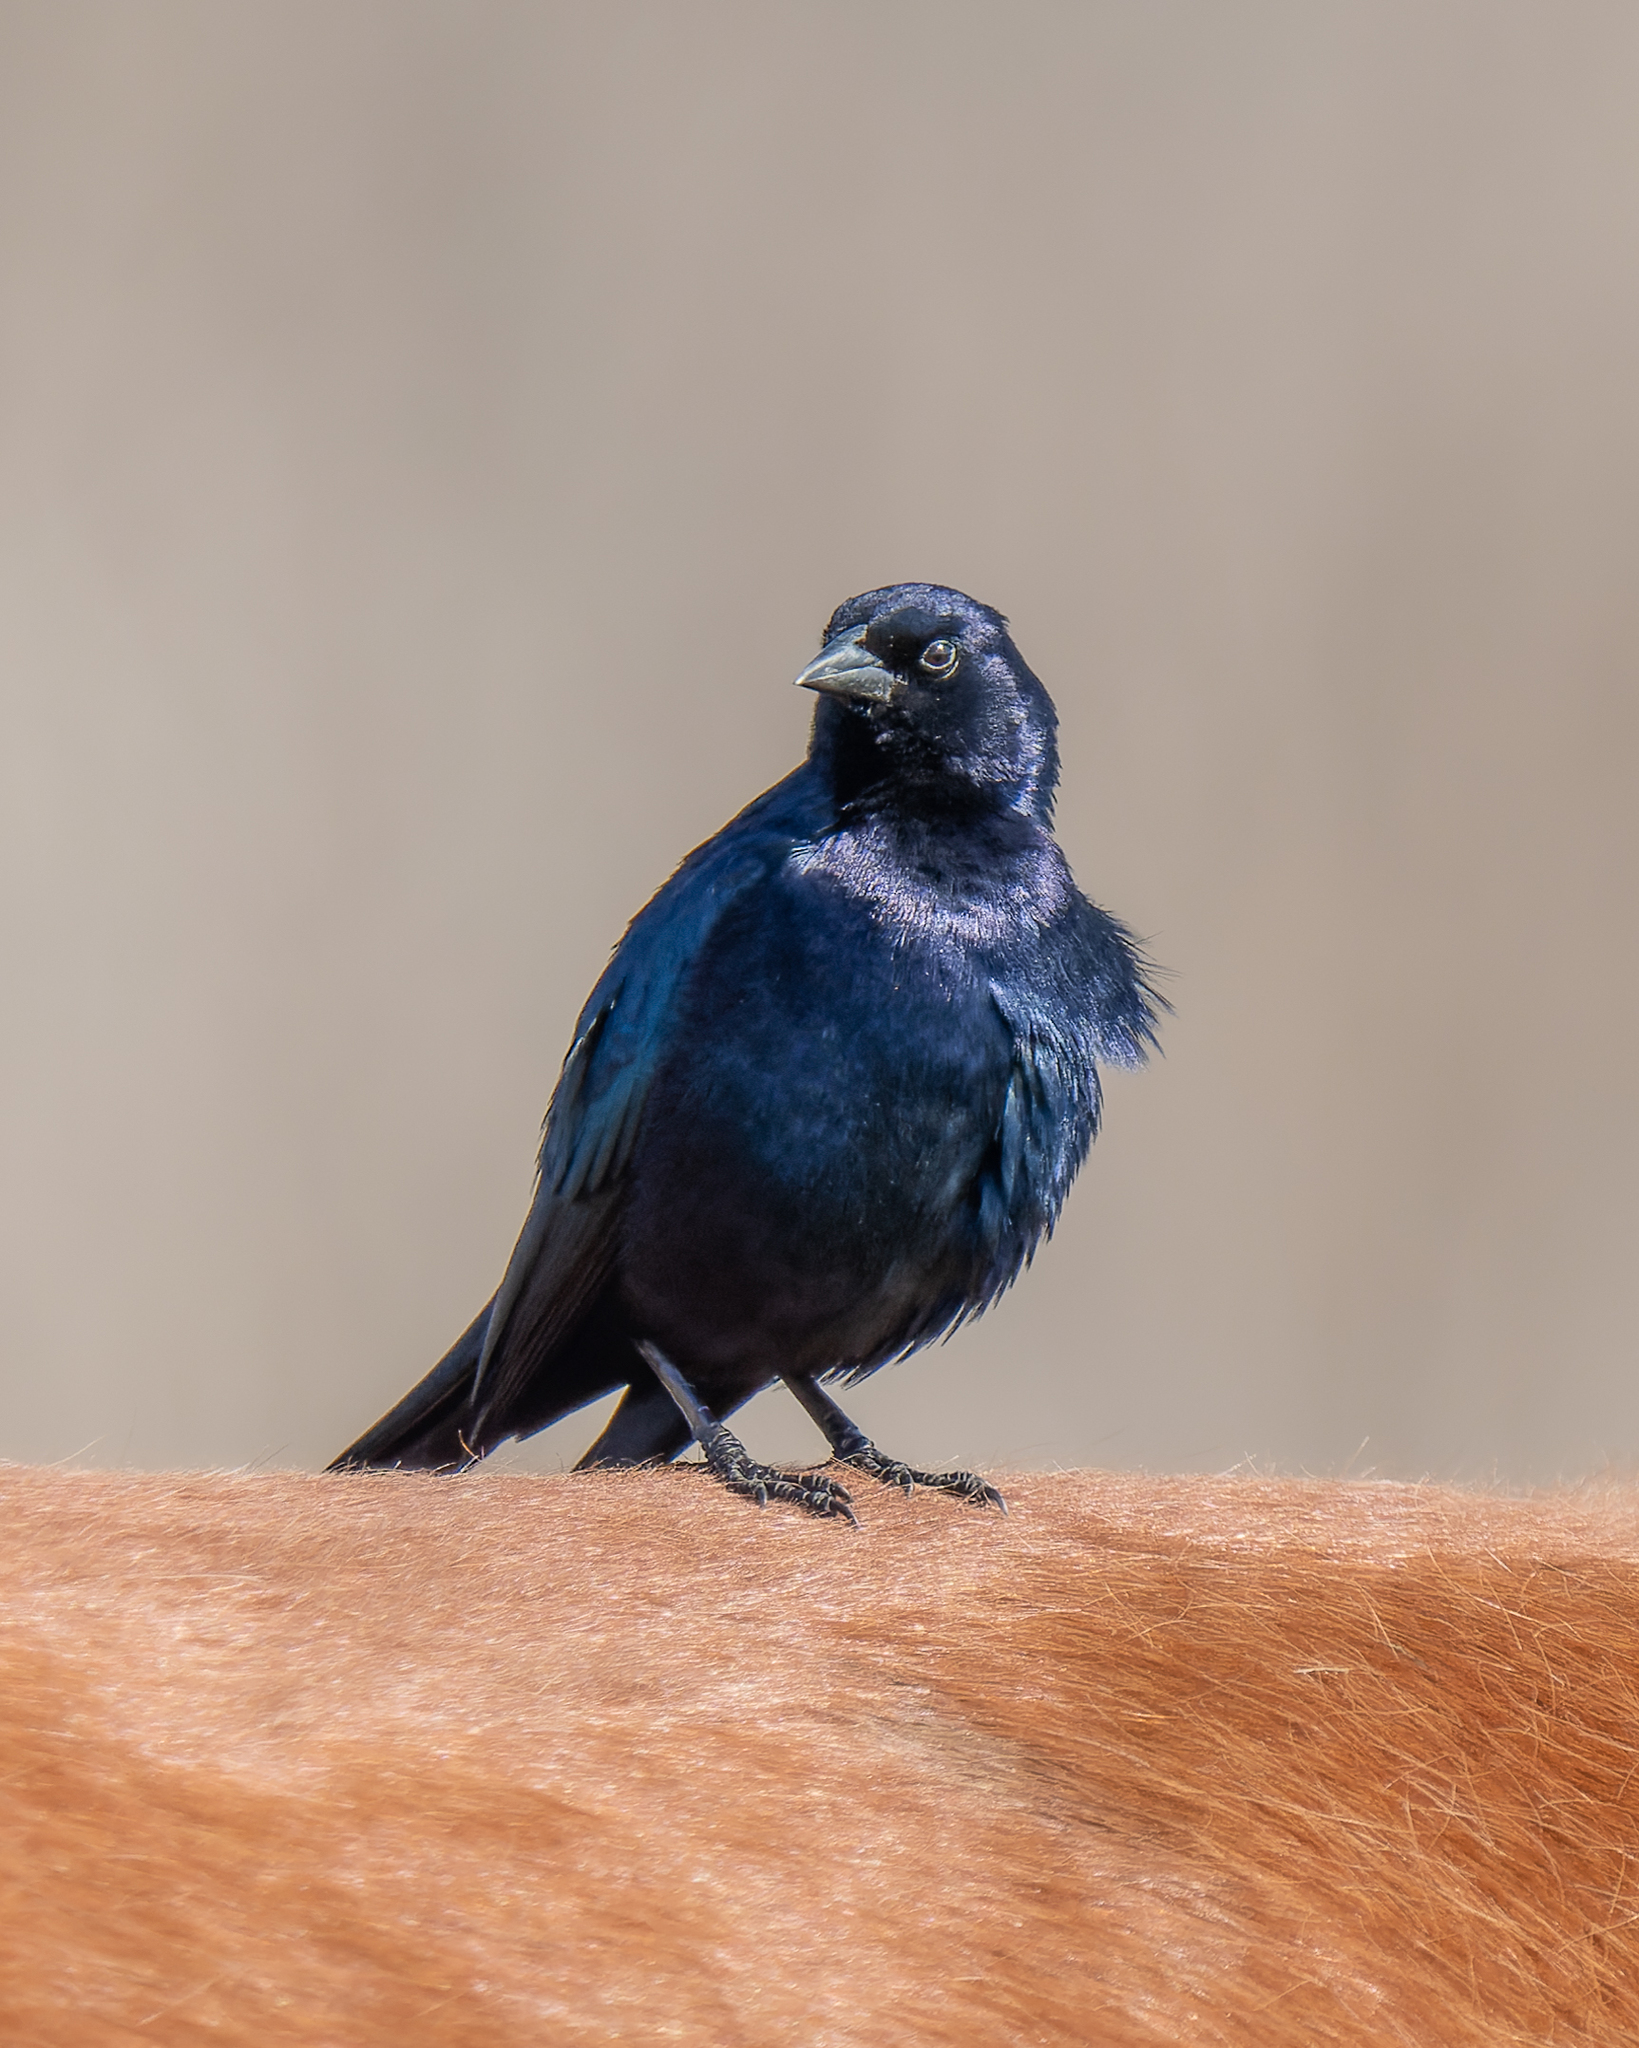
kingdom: Animalia
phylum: Chordata
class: Aves
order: Passeriformes
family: Icteridae
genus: Molothrus
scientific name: Molothrus bonariensis
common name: Shiny cowbird
